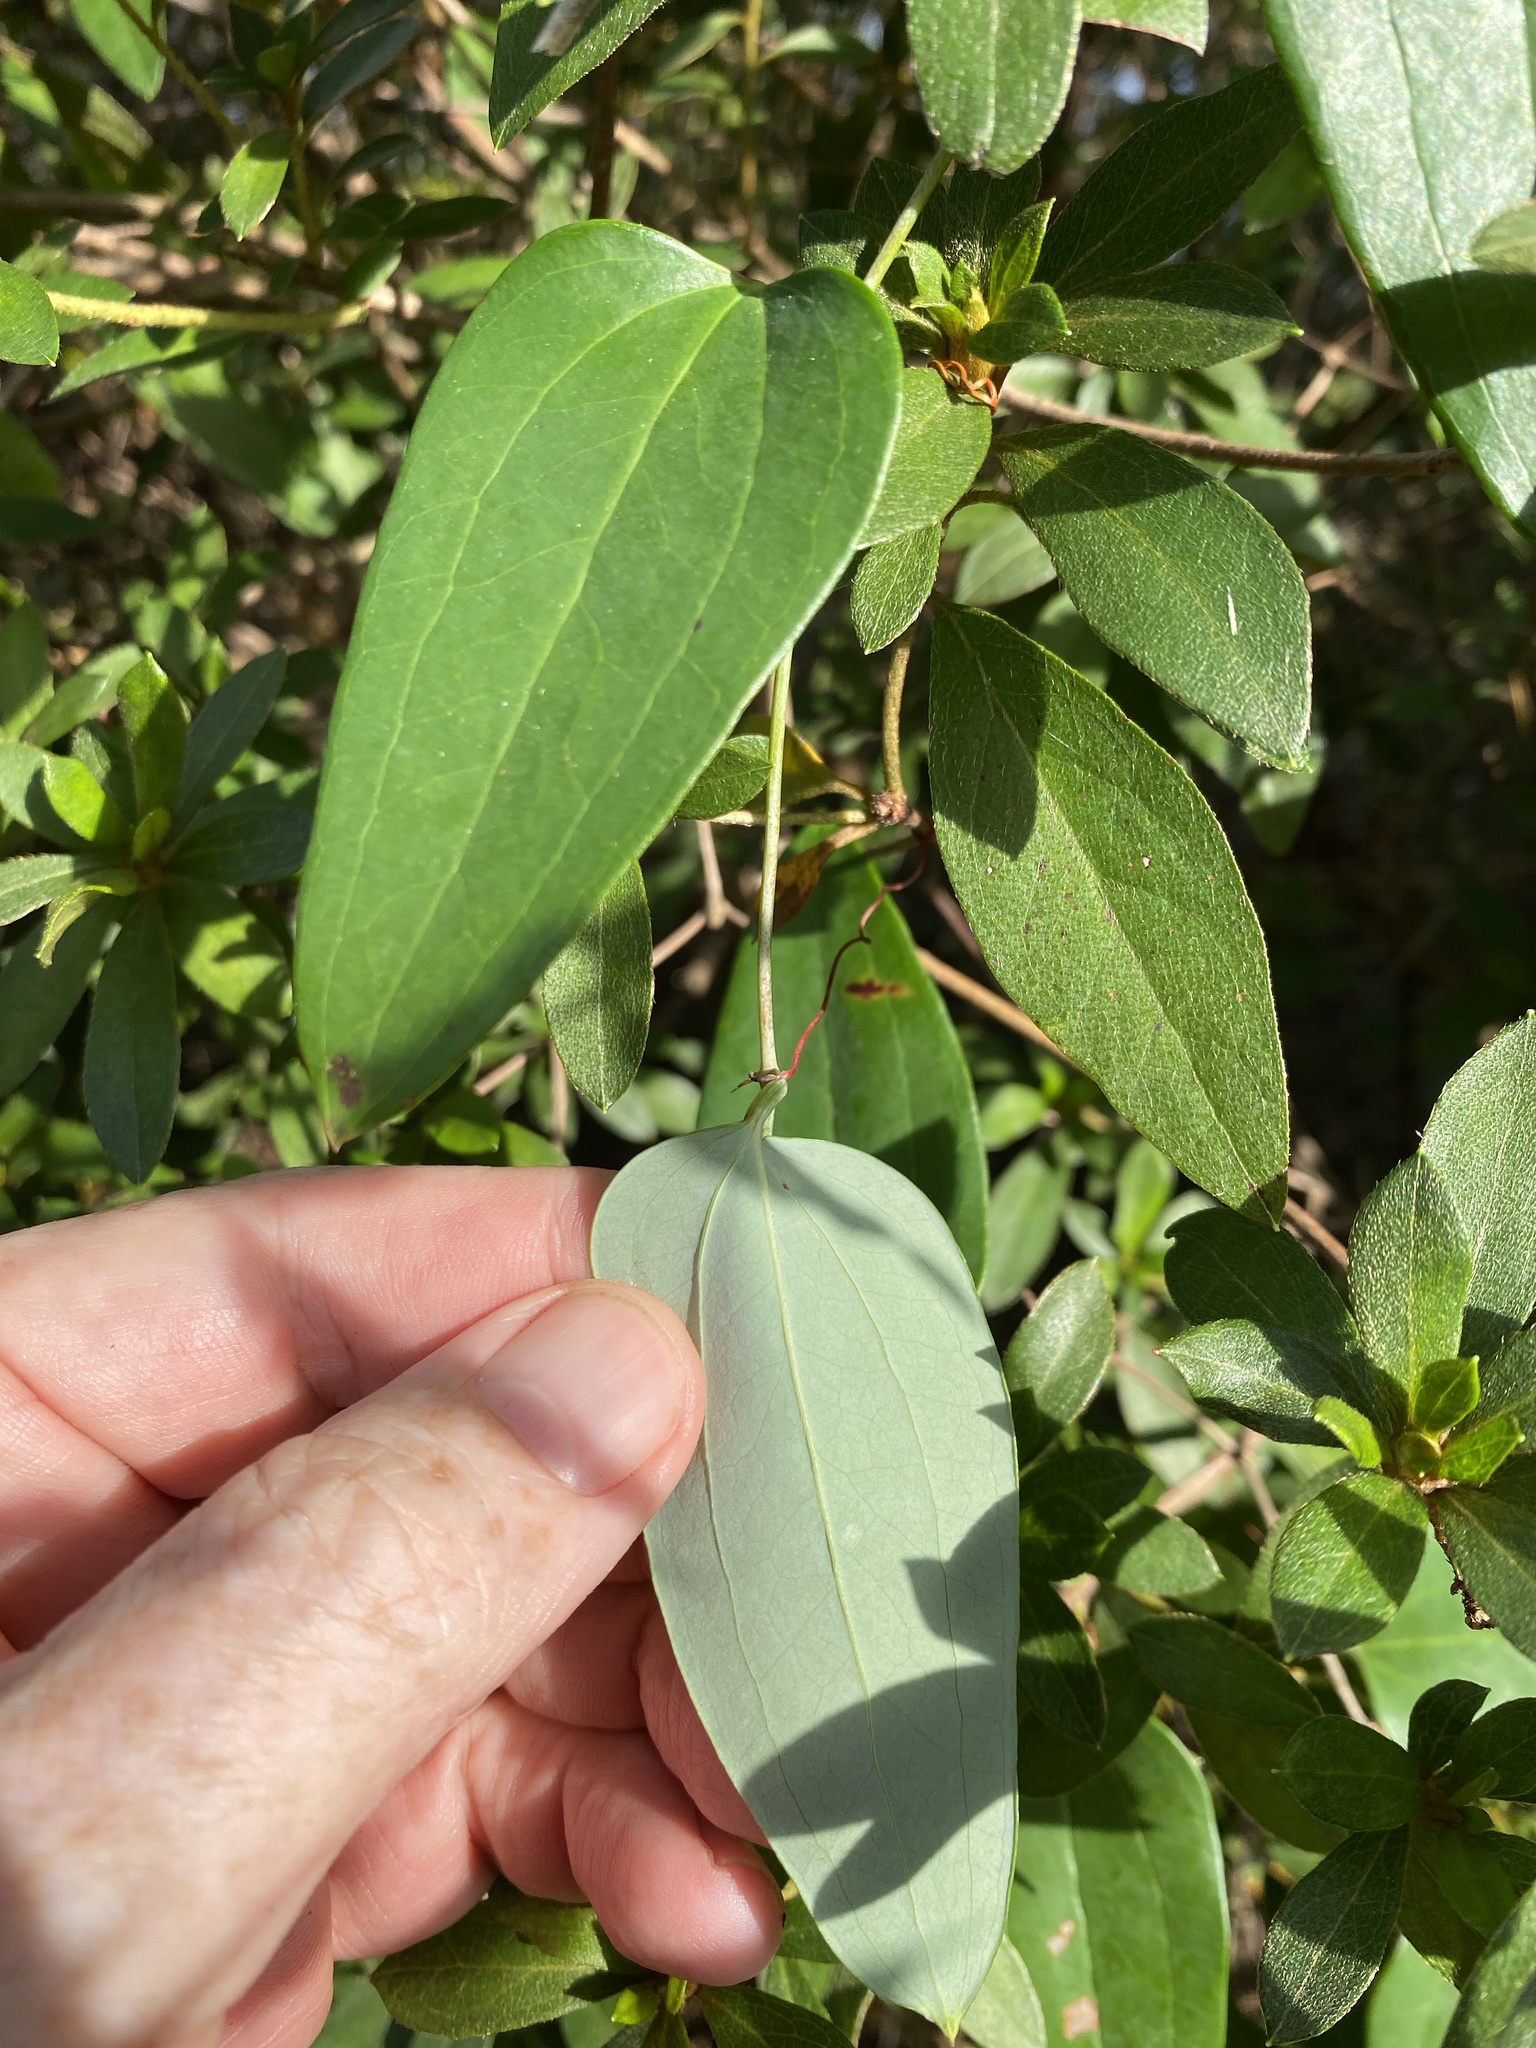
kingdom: Plantae
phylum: Tracheophyta
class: Liliopsida
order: Liliales
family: Smilacaceae
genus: Smilax
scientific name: Smilax glauca
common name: Cat greenbrier
